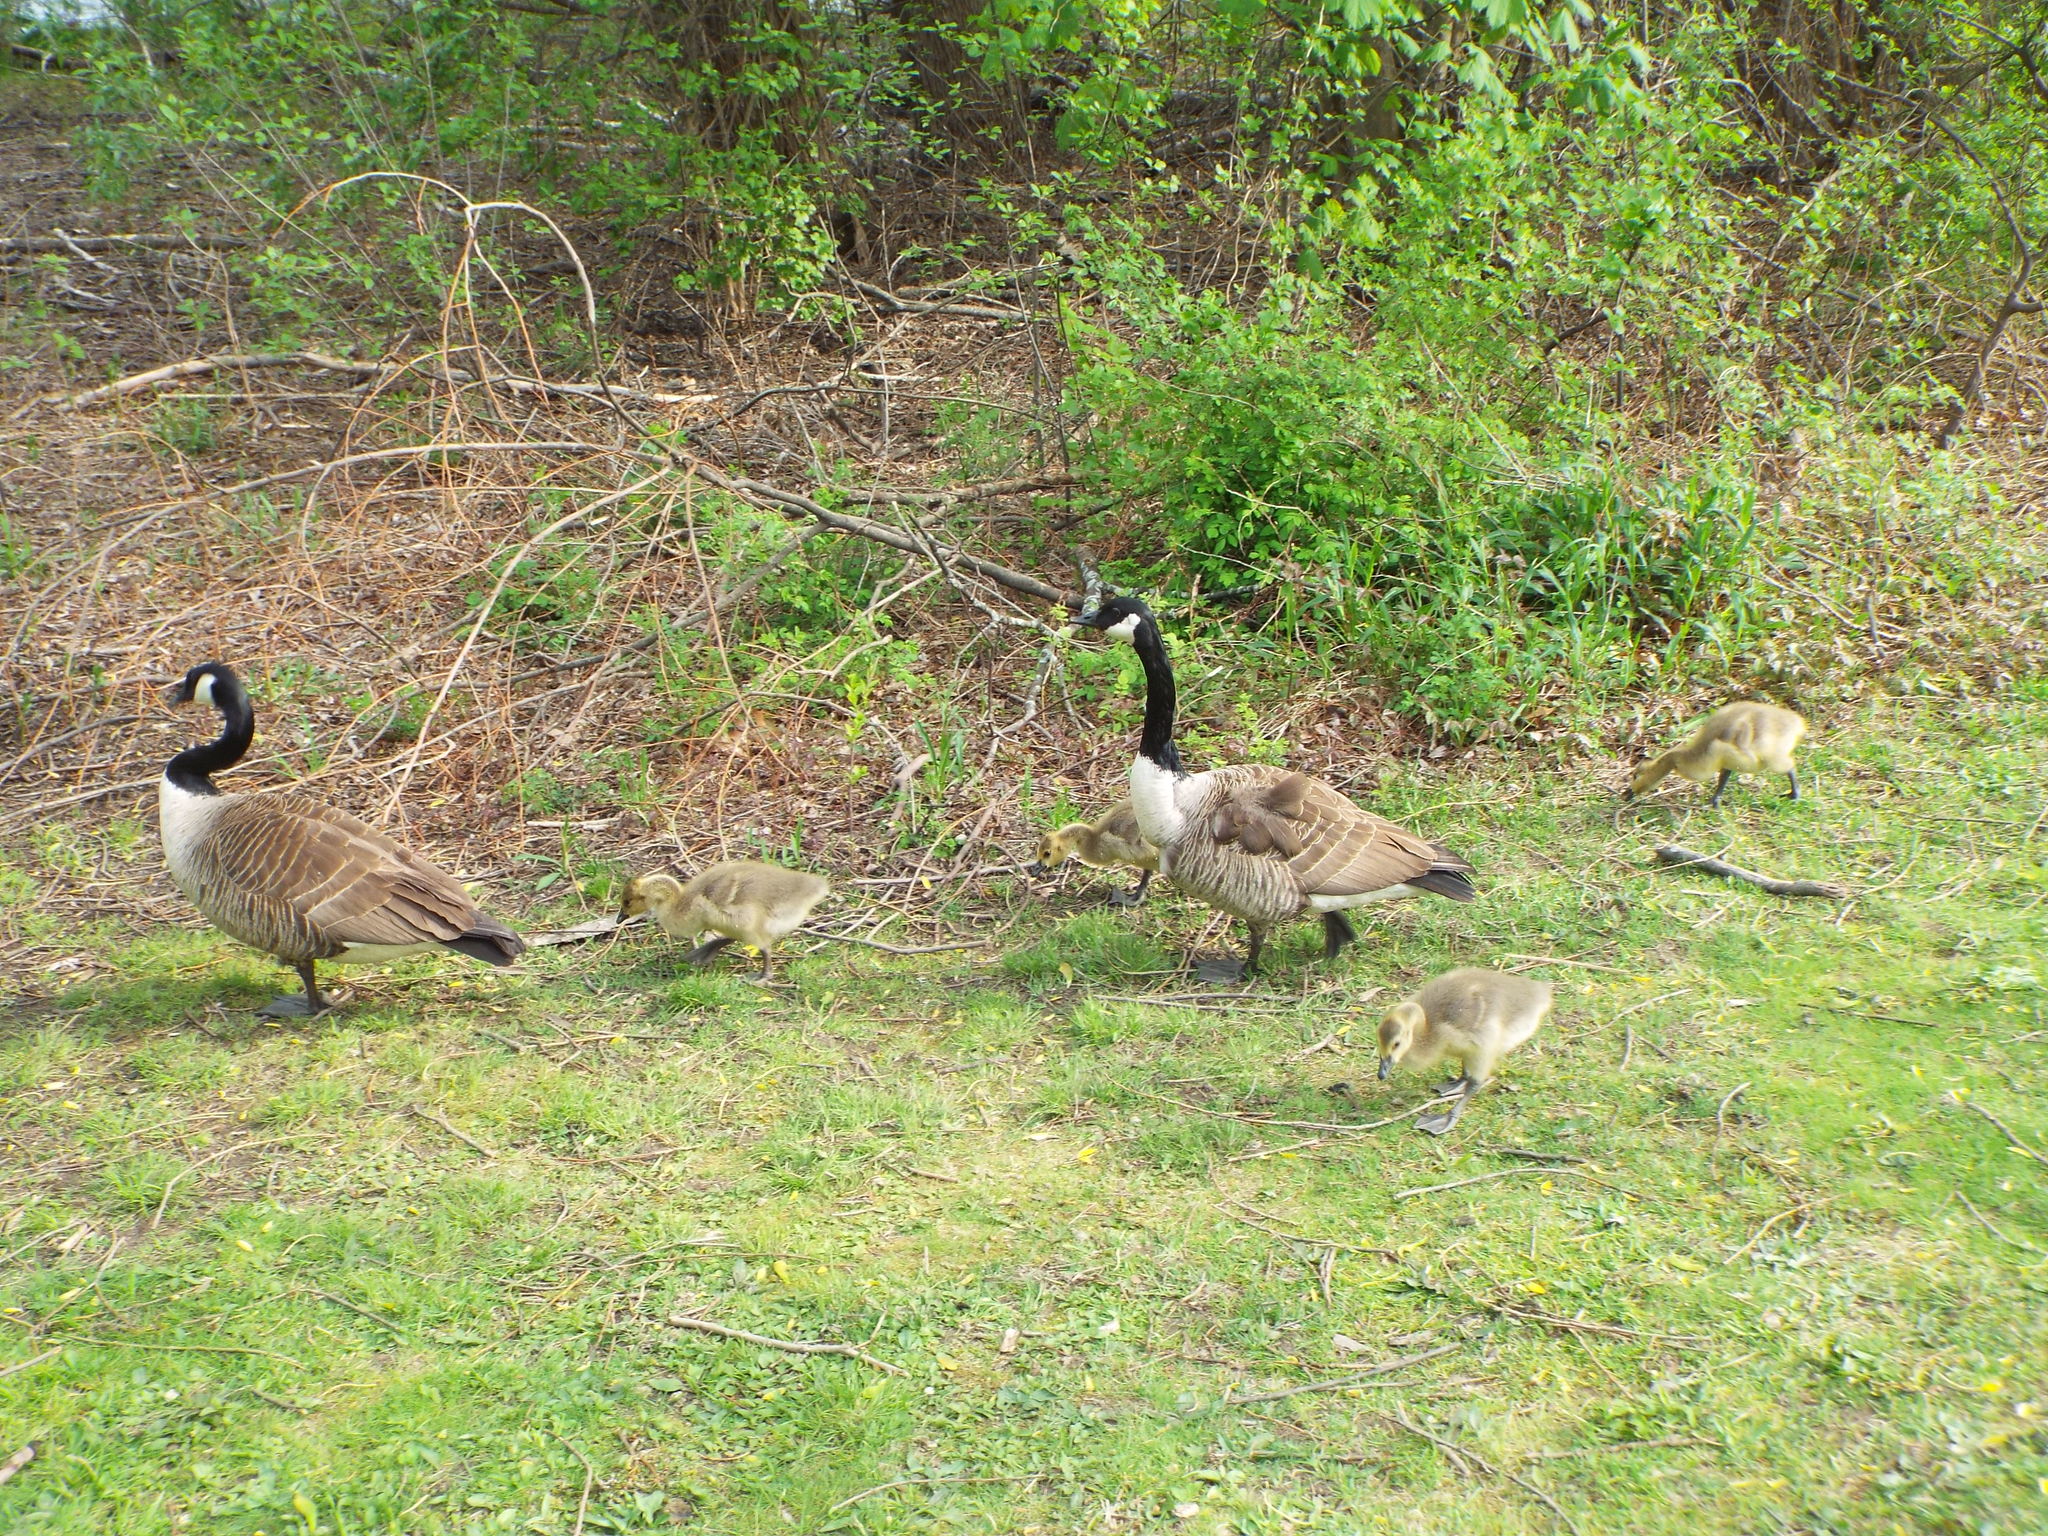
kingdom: Animalia
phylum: Chordata
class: Aves
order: Anseriformes
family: Anatidae
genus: Branta
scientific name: Branta canadensis
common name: Canada goose
